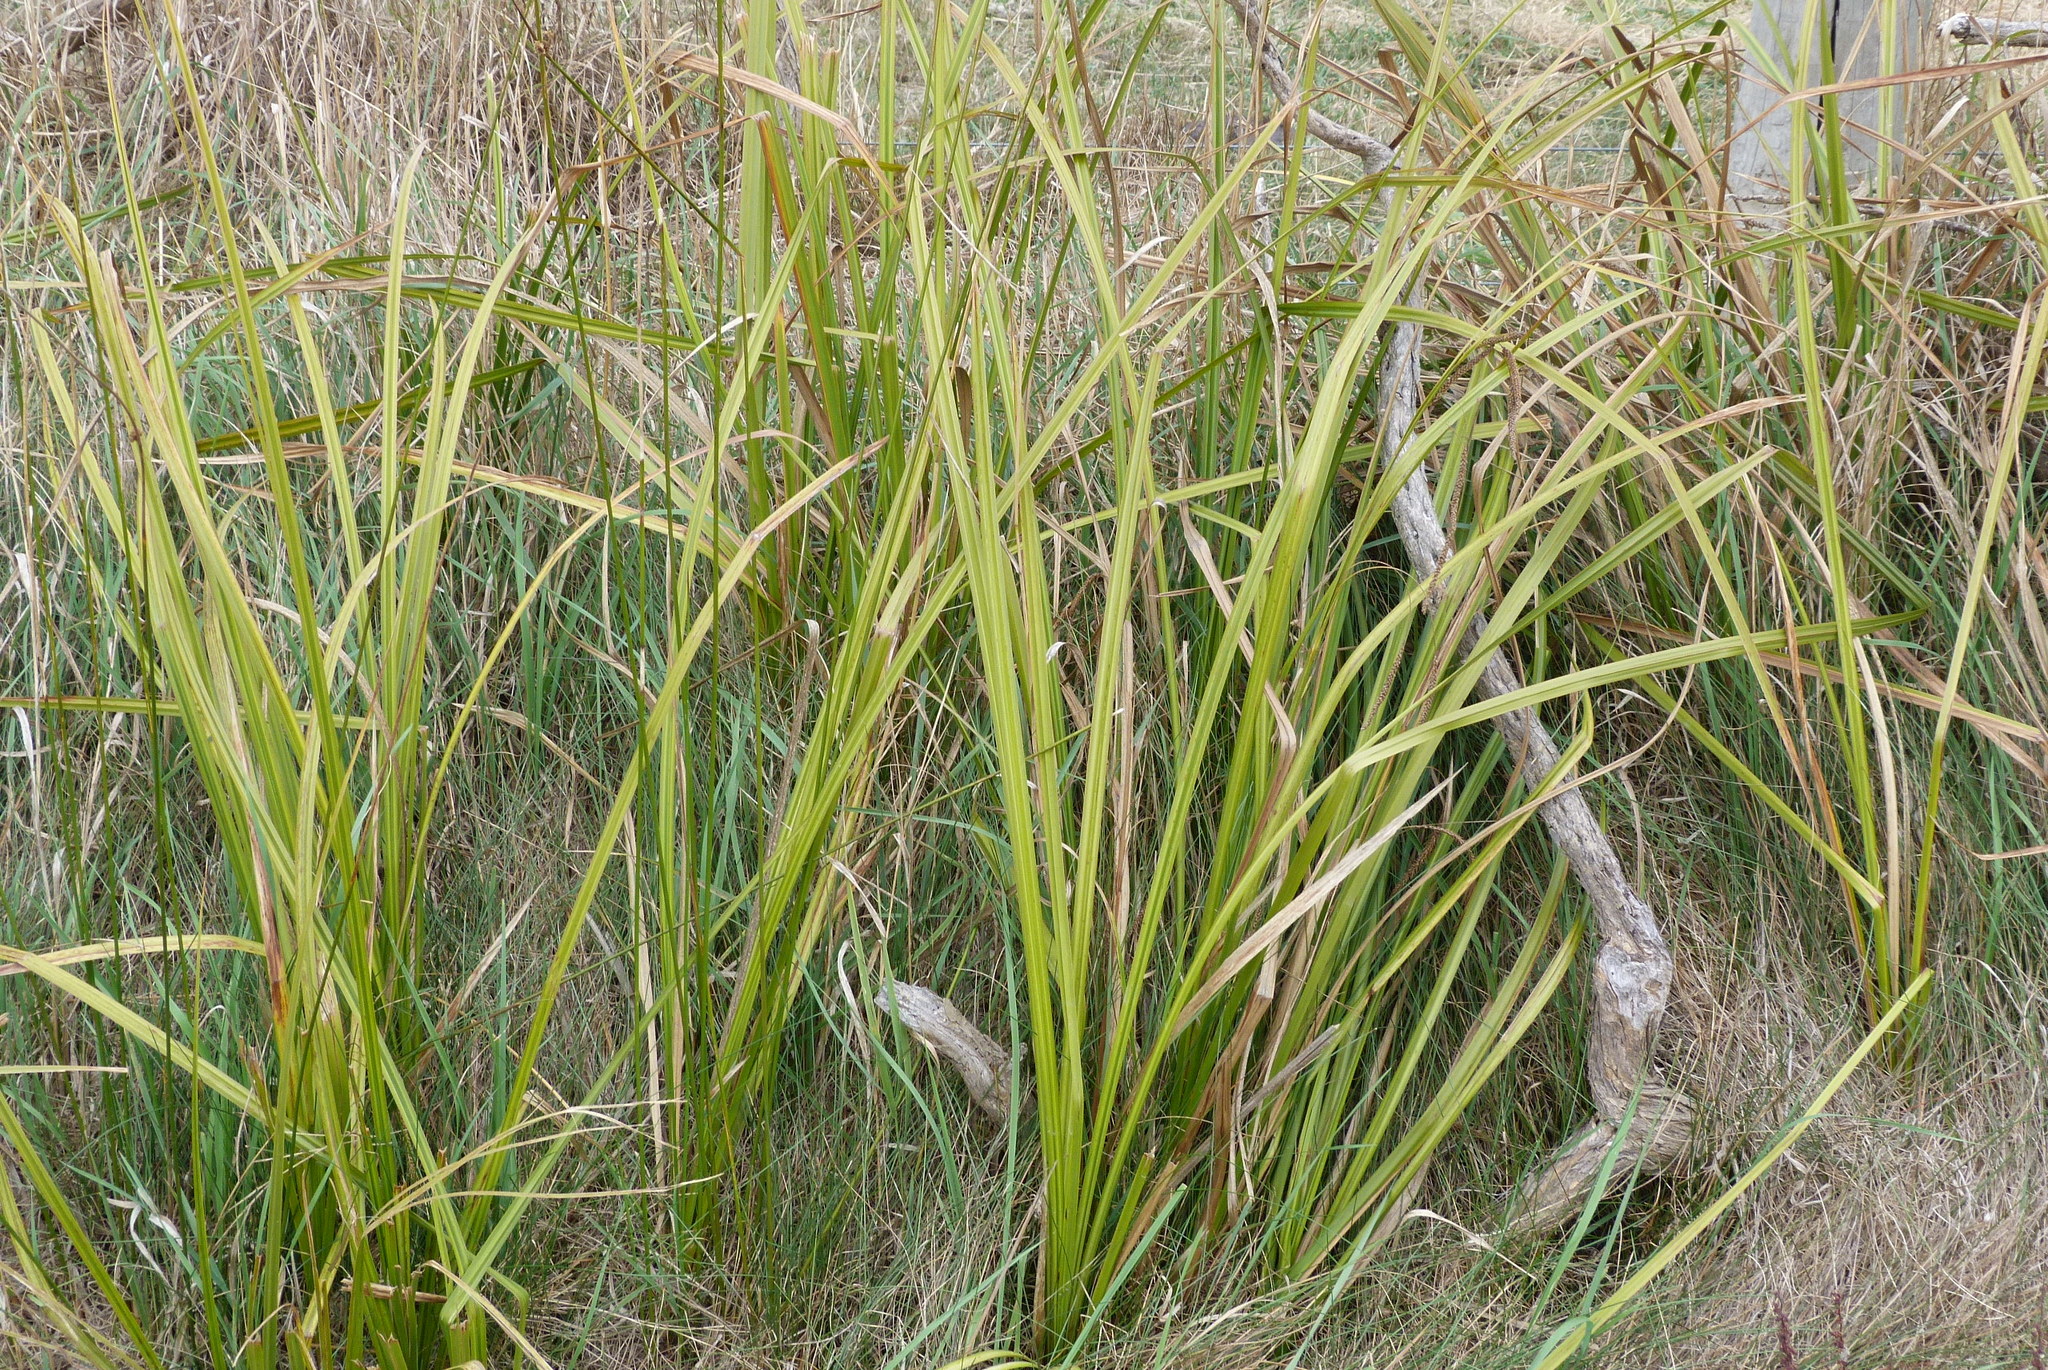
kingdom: Plantae
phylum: Tracheophyta
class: Liliopsida
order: Poales
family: Cyperaceae
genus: Carex
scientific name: Carex geminata
